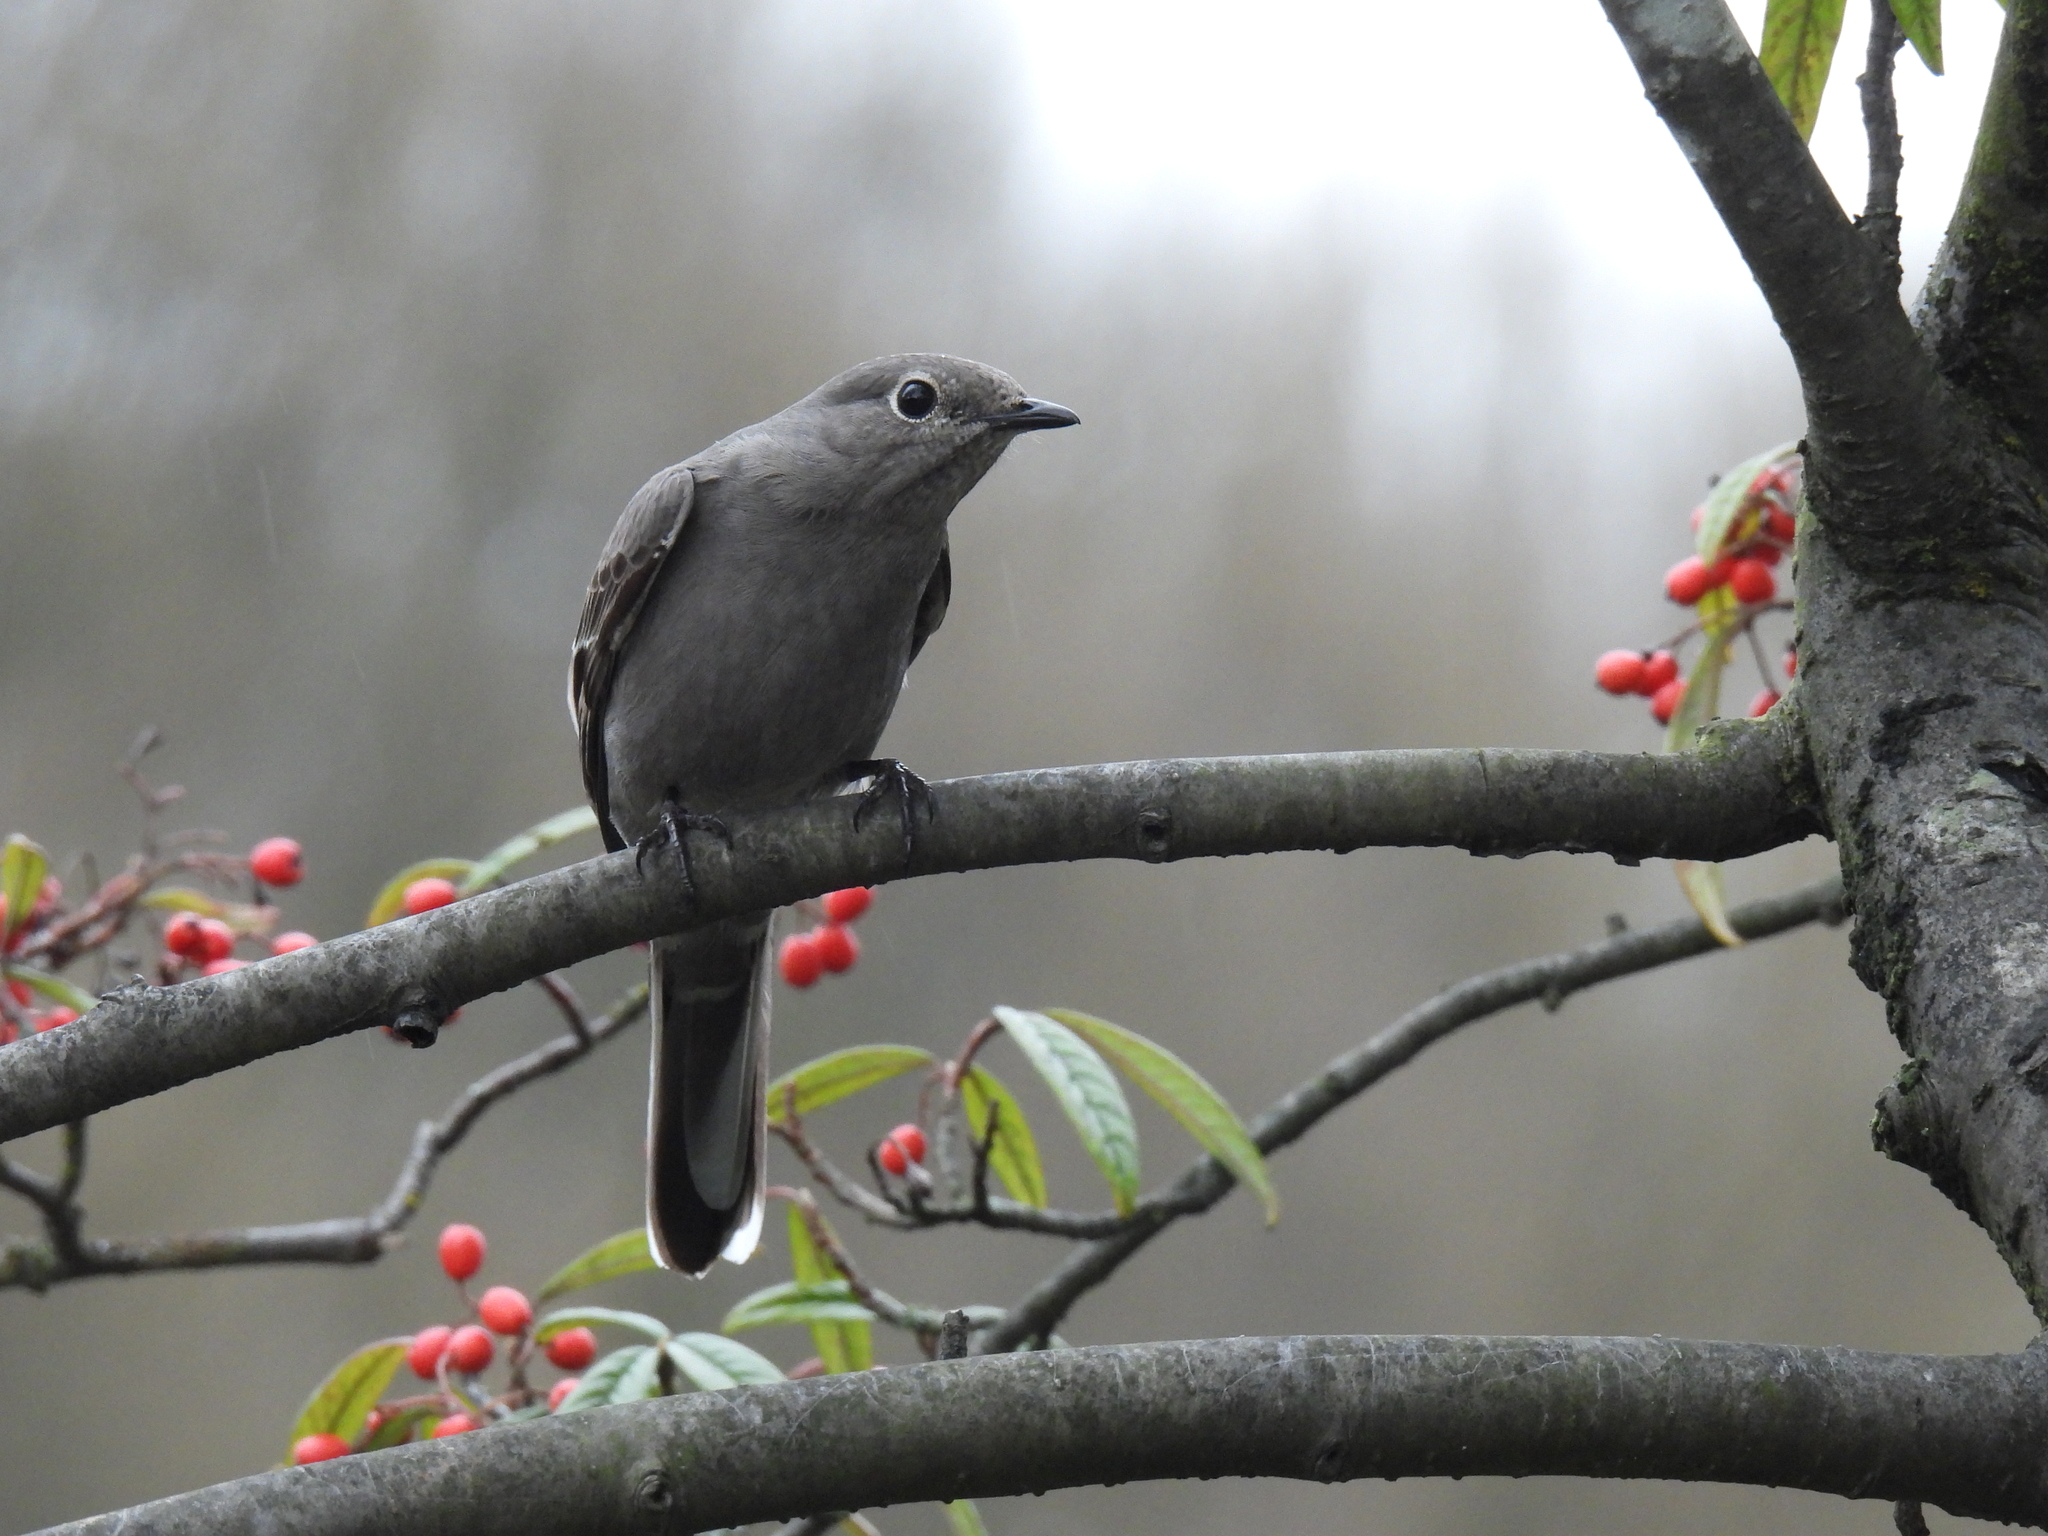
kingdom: Animalia
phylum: Chordata
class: Aves
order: Passeriformes
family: Turdidae
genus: Myadestes
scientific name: Myadestes townsendi
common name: Townsend's solitaire
